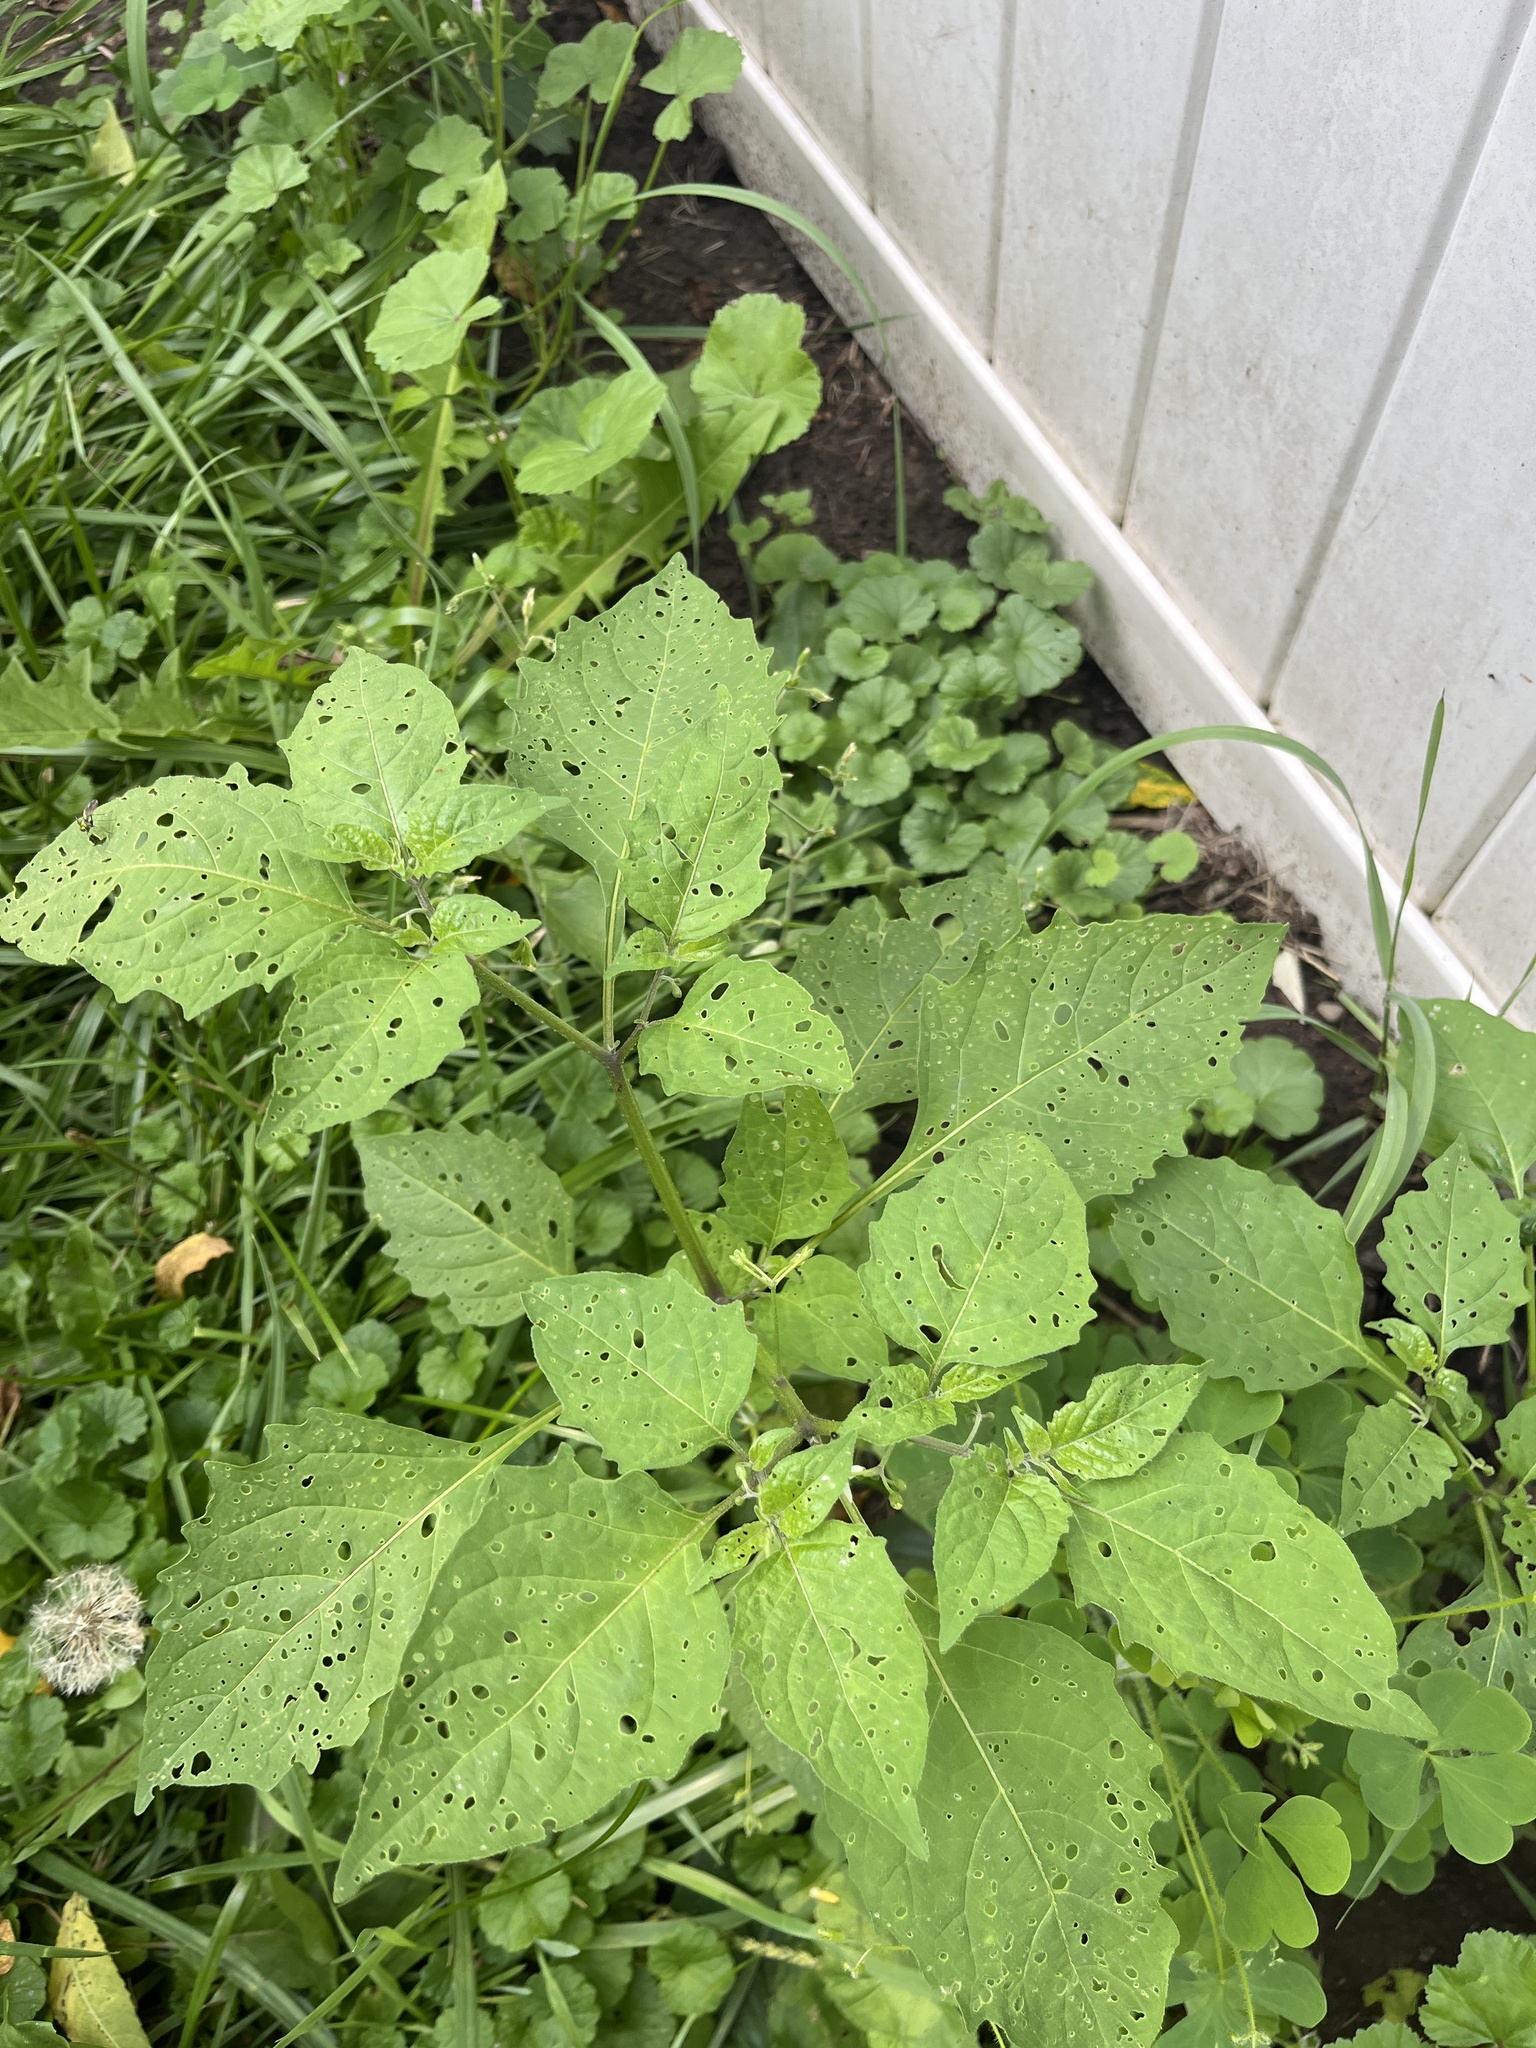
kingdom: Plantae
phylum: Tracheophyta
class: Magnoliopsida
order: Solanales
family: Solanaceae
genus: Solanum
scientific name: Solanum emulans
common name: Eastern black nightshade
